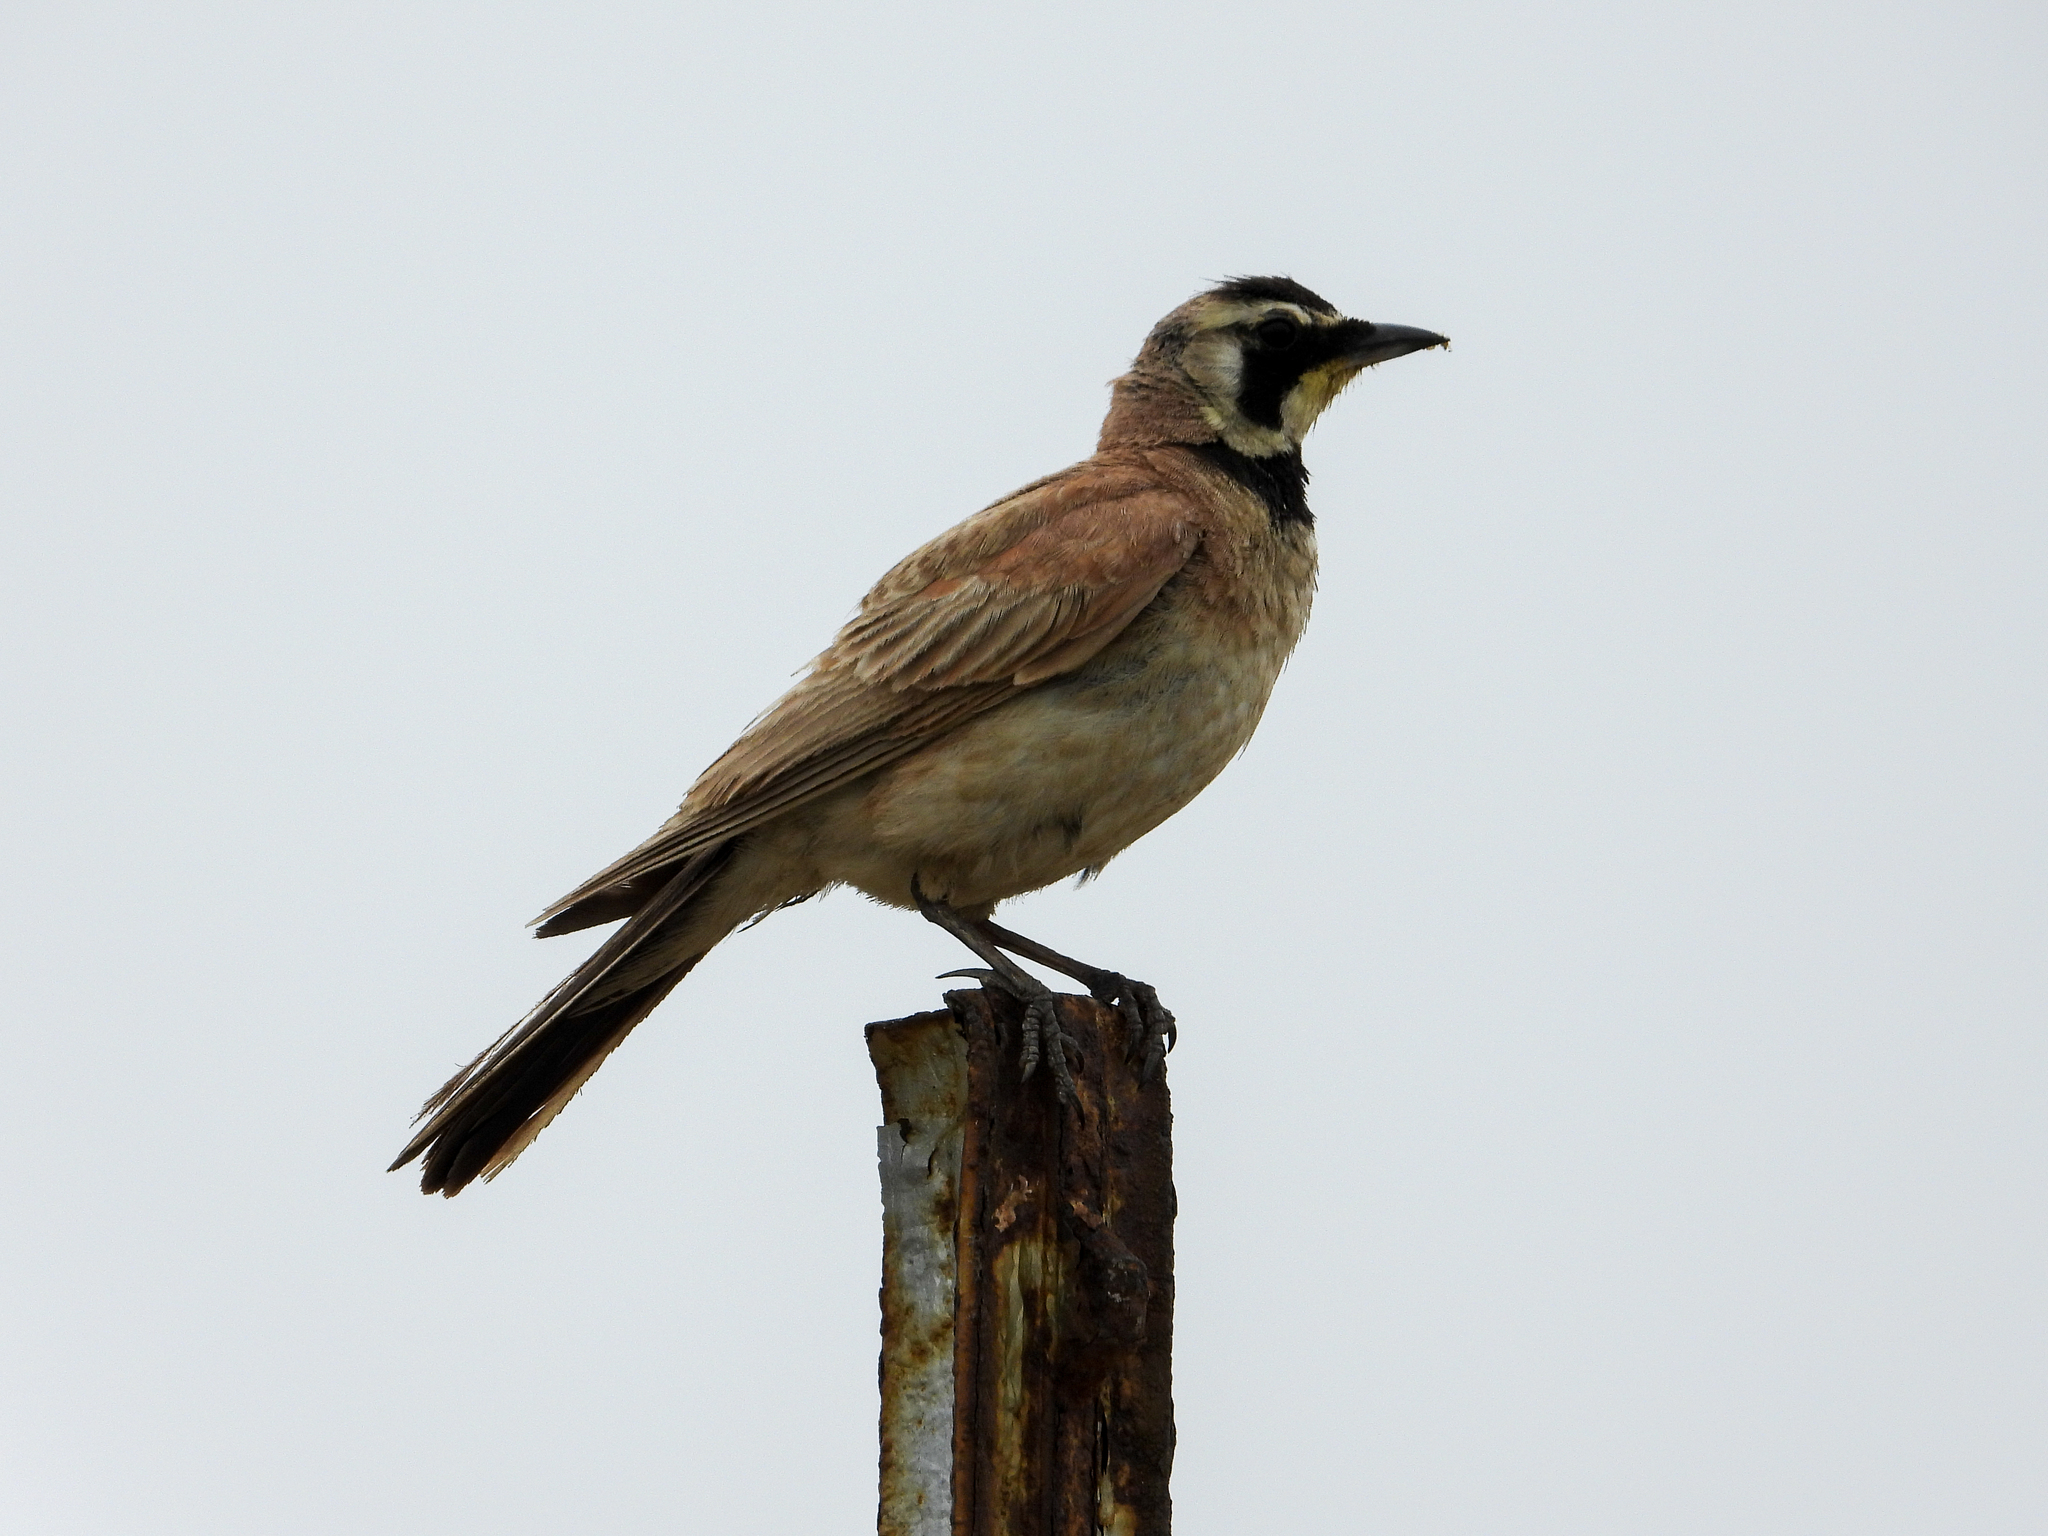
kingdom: Animalia
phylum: Chordata
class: Aves
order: Passeriformes
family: Alaudidae
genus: Eremophila
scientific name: Eremophila alpestris
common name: Horned lark
